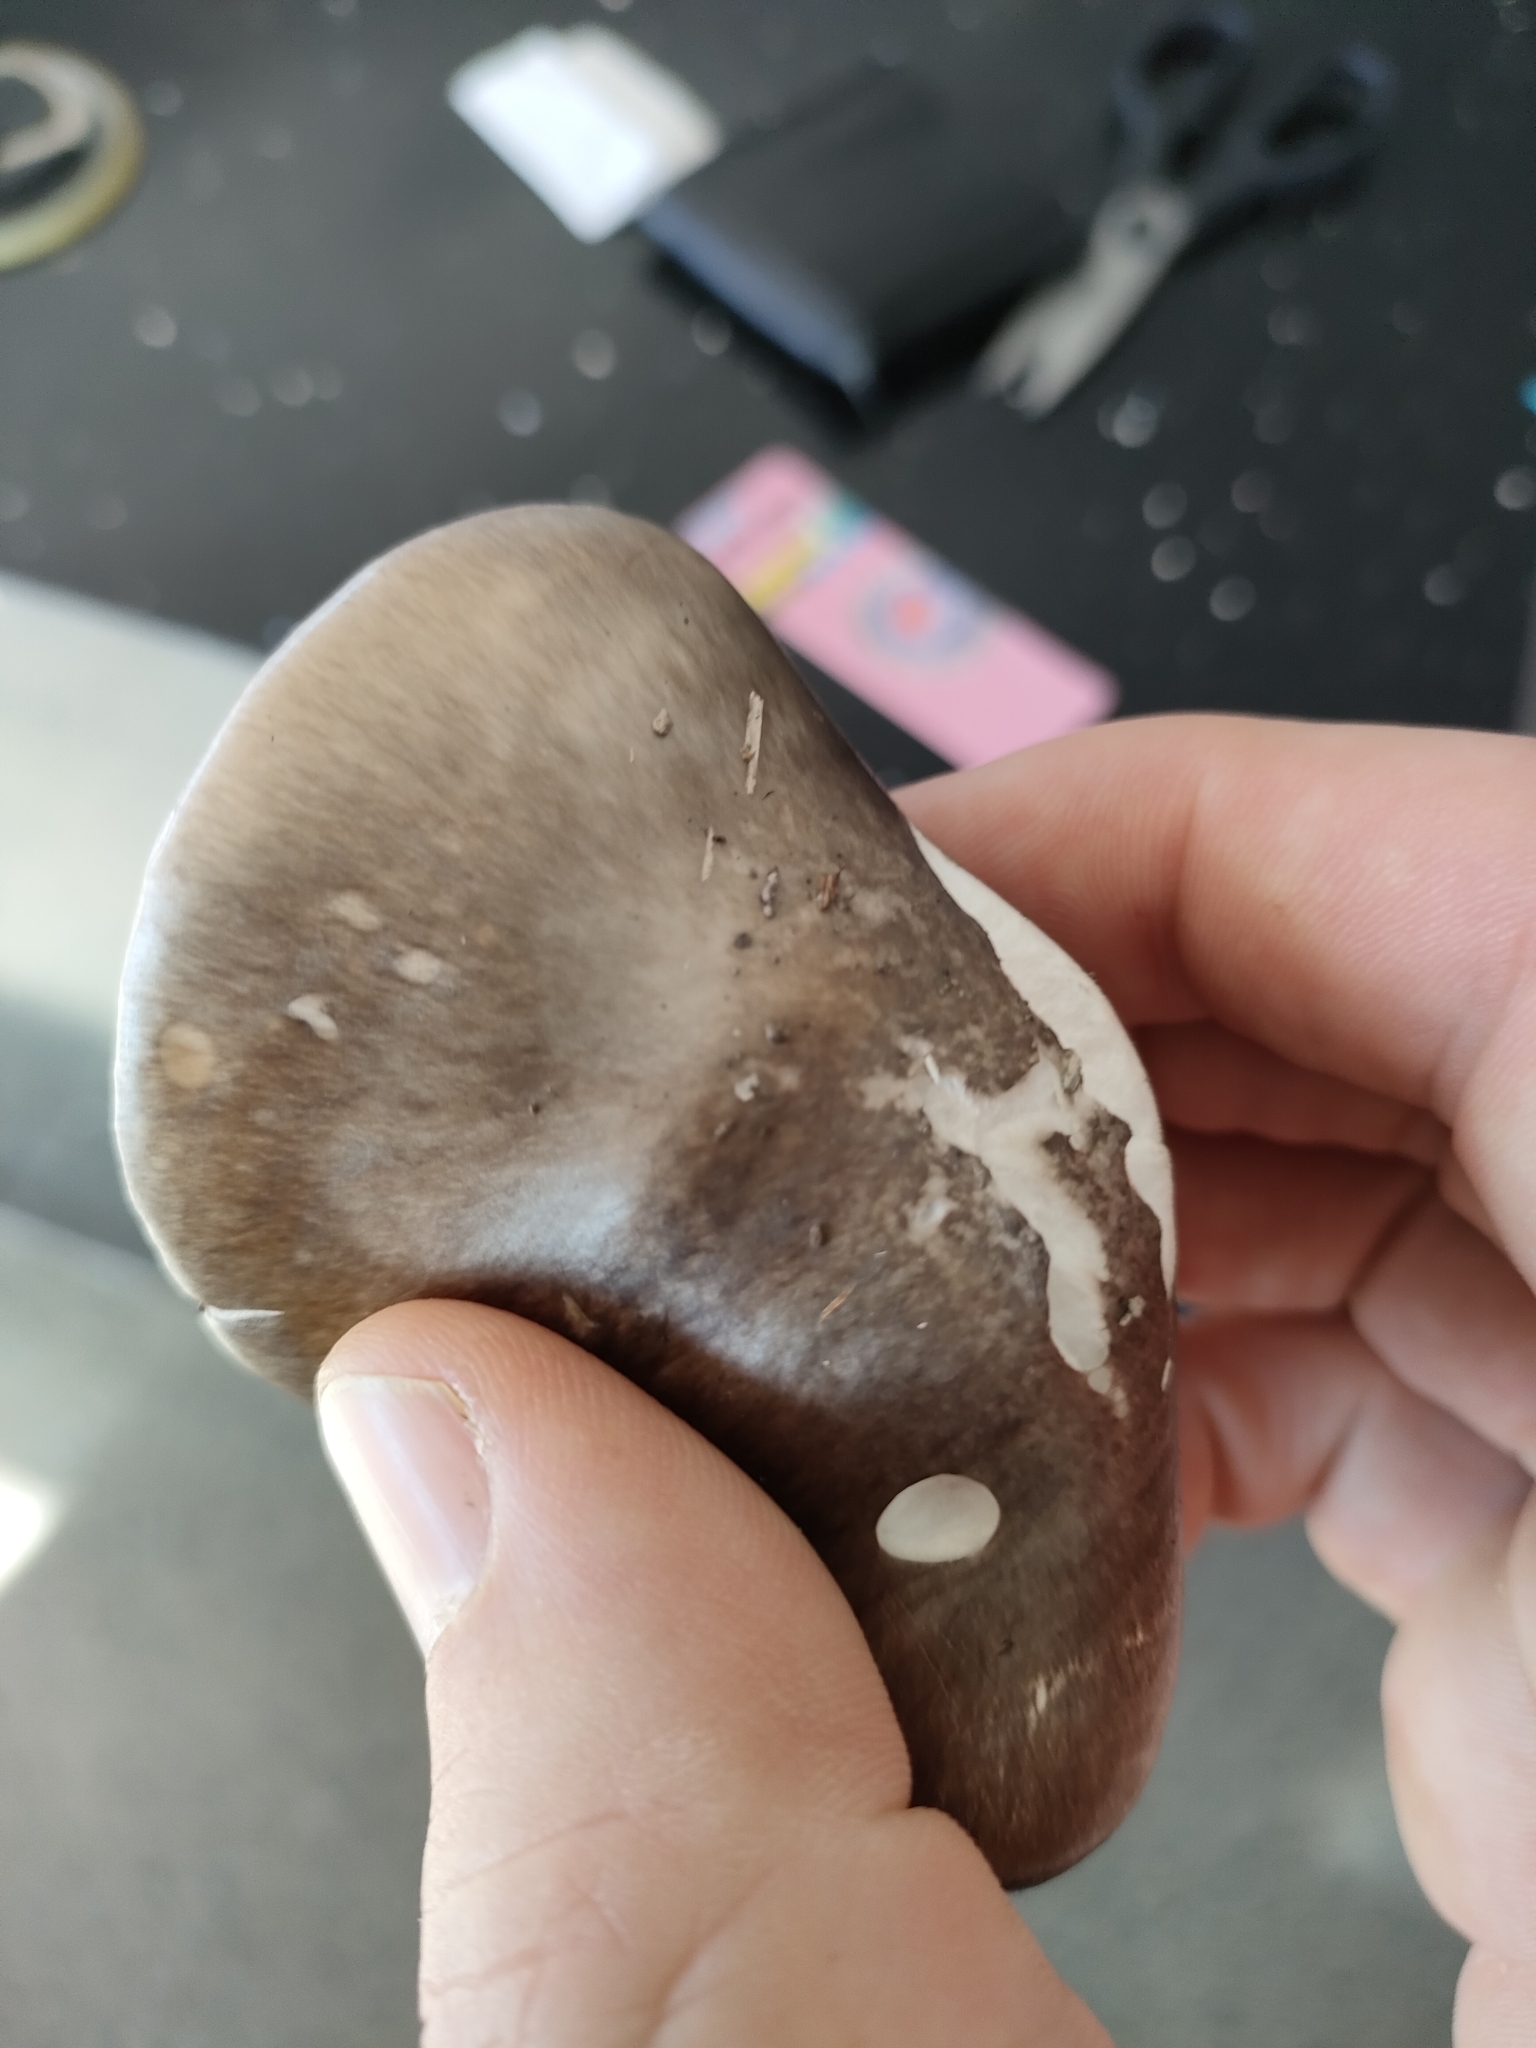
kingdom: Fungi
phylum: Basidiomycota
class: Agaricomycetes
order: Agaricales
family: Amanitaceae
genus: Amanita
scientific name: Amanita marmorata
